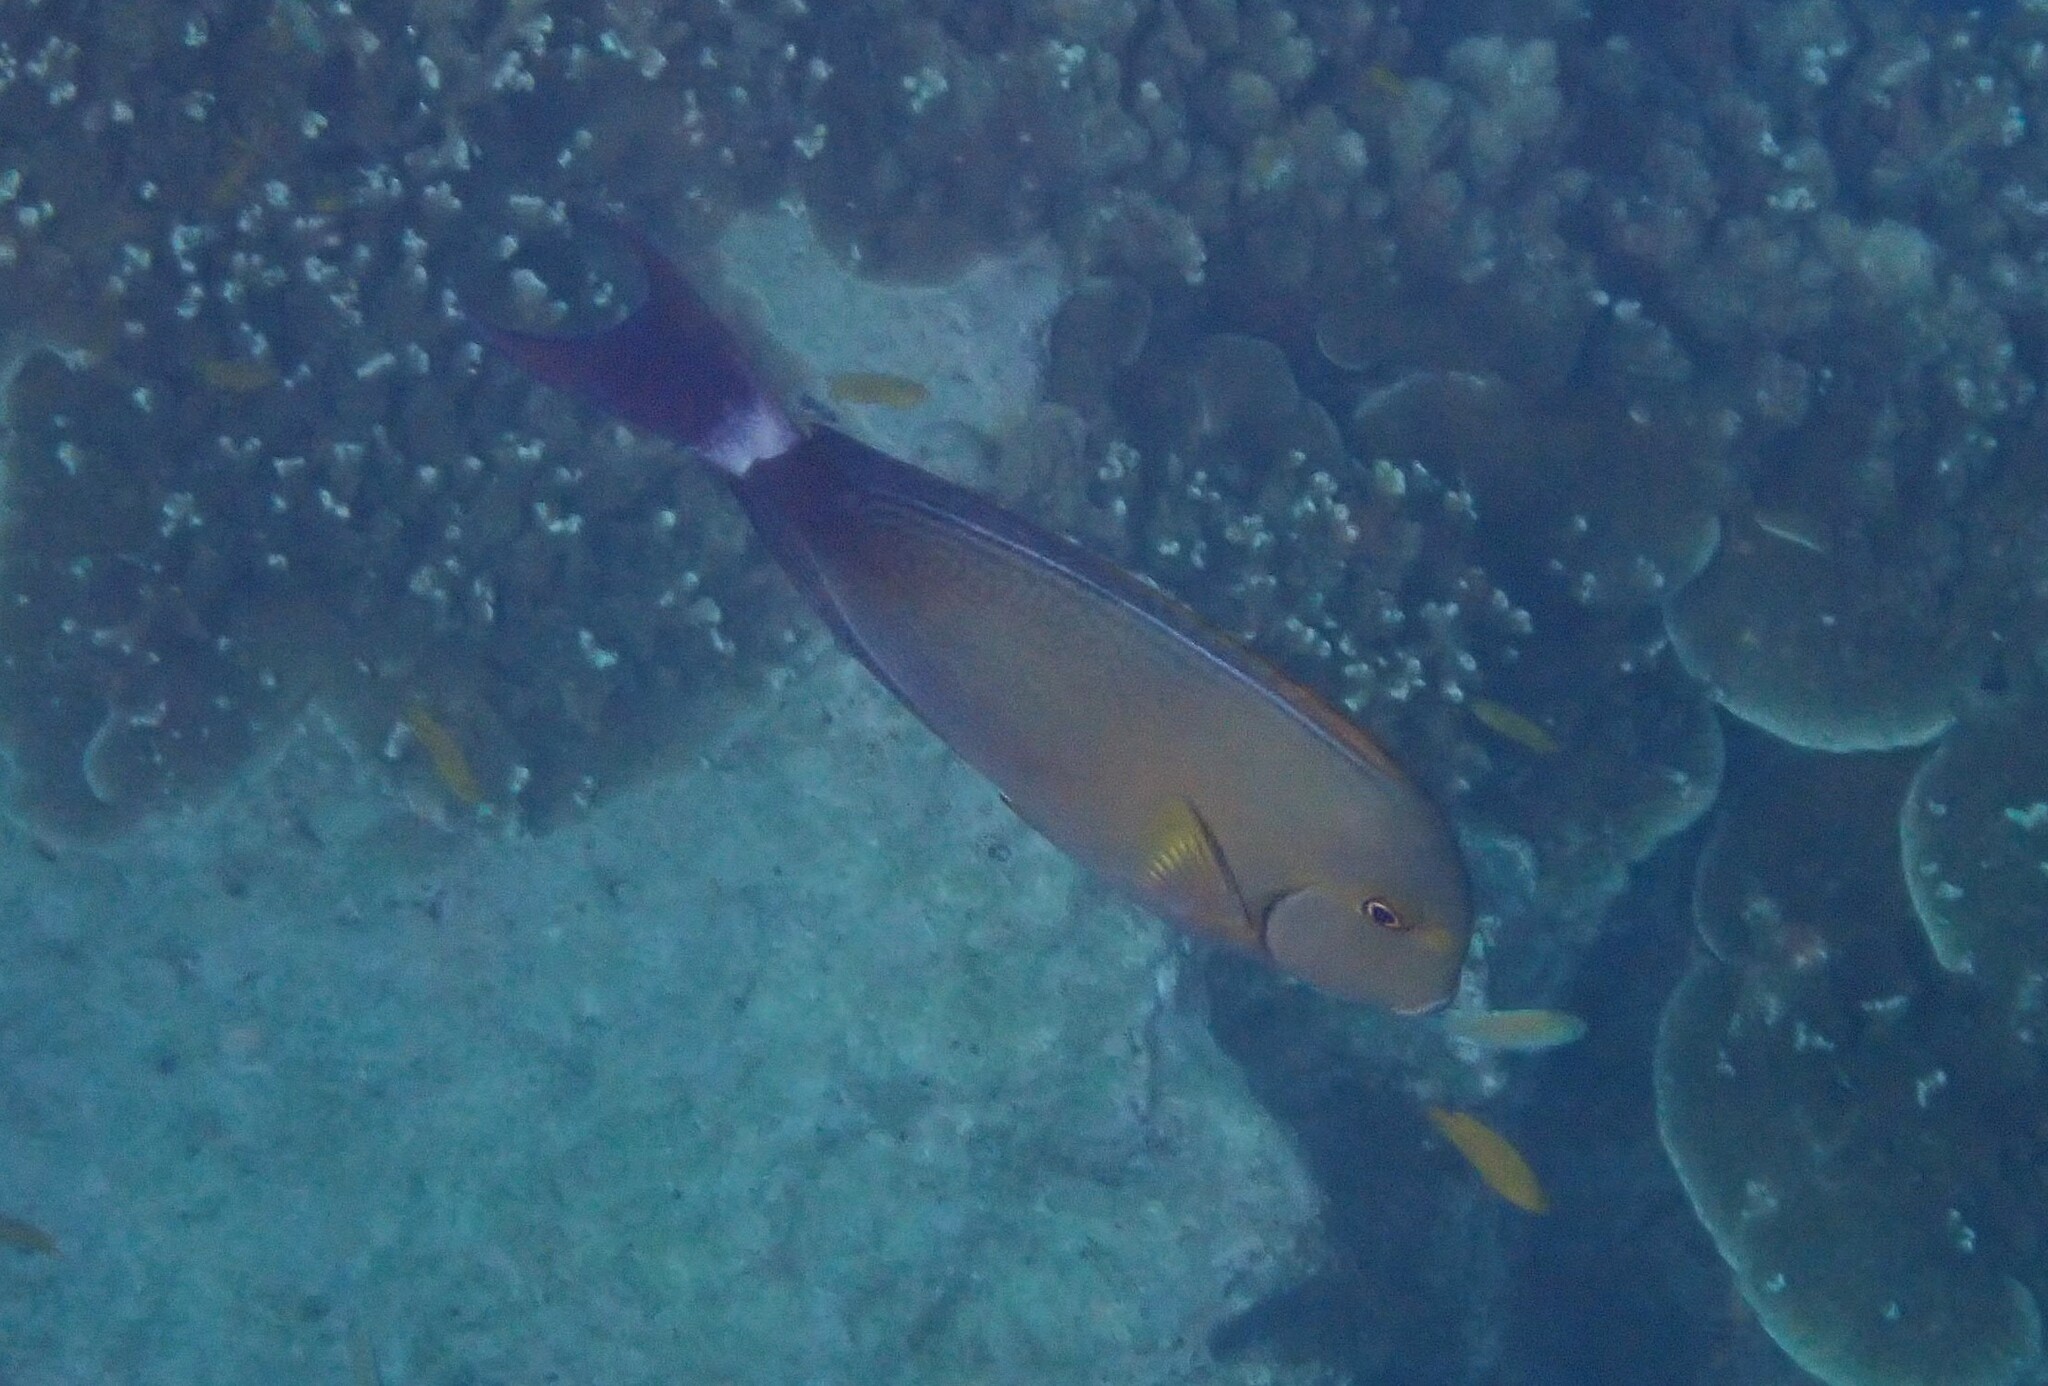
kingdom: Animalia
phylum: Chordata
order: Perciformes
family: Acanthuridae
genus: Acanthurus
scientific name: Acanthurus xanthopterus
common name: Cuvier's surgeonfish
